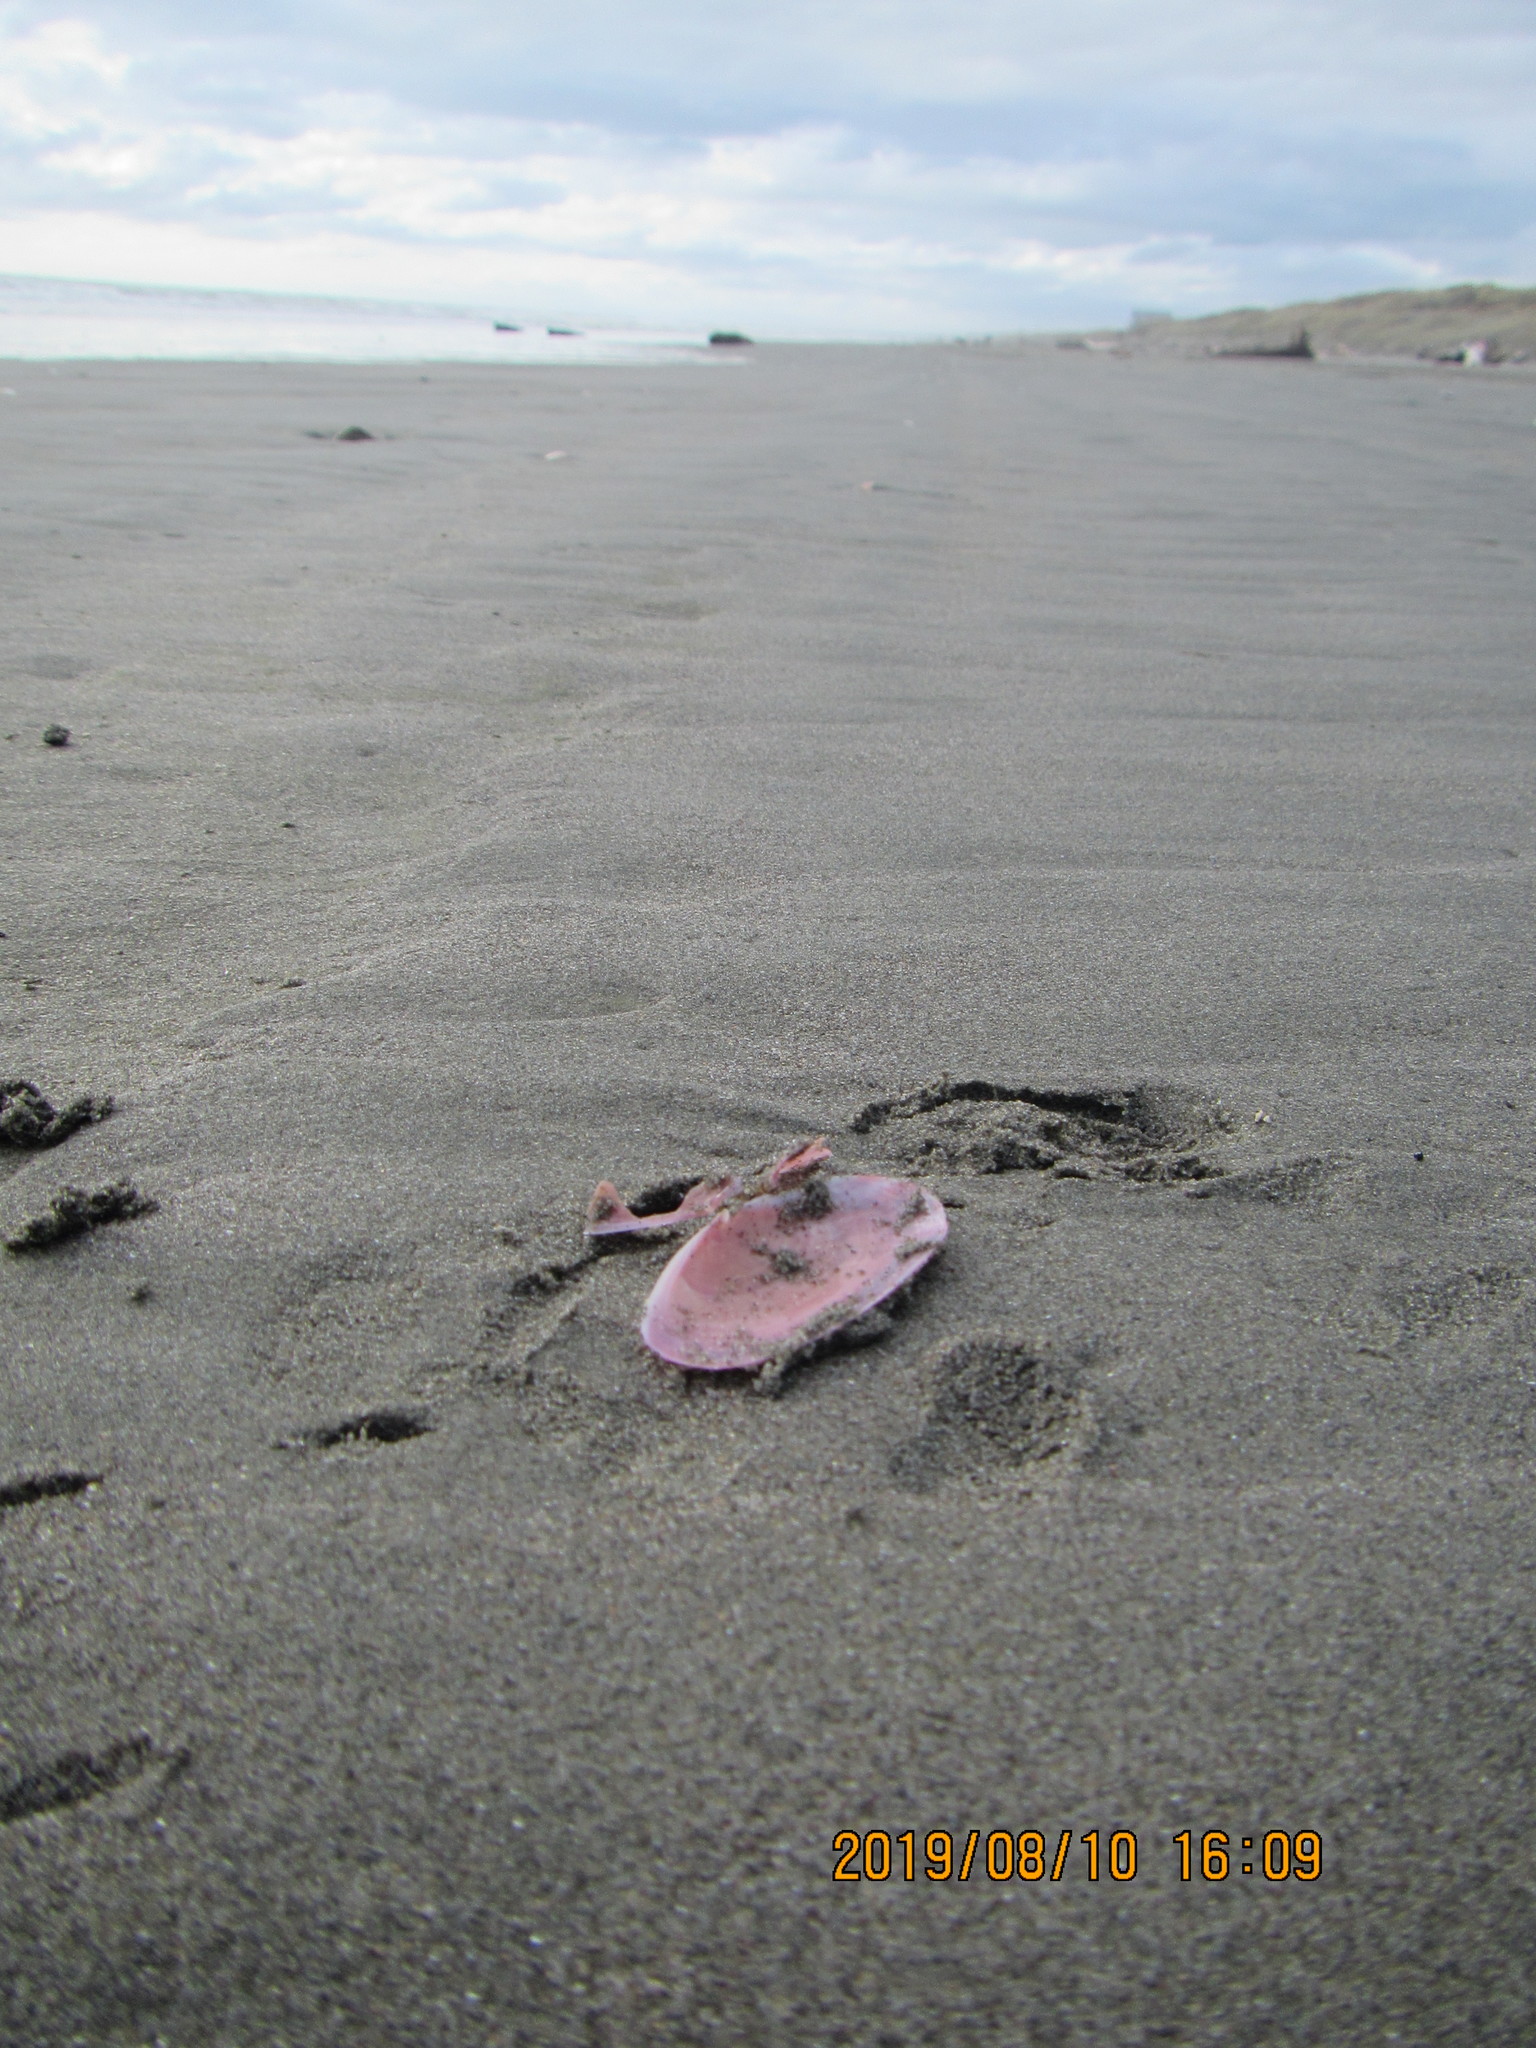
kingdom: Animalia
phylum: Mollusca
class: Bivalvia
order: Cardiida
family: Psammobiidae
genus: Gari
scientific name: Gari lineolata
